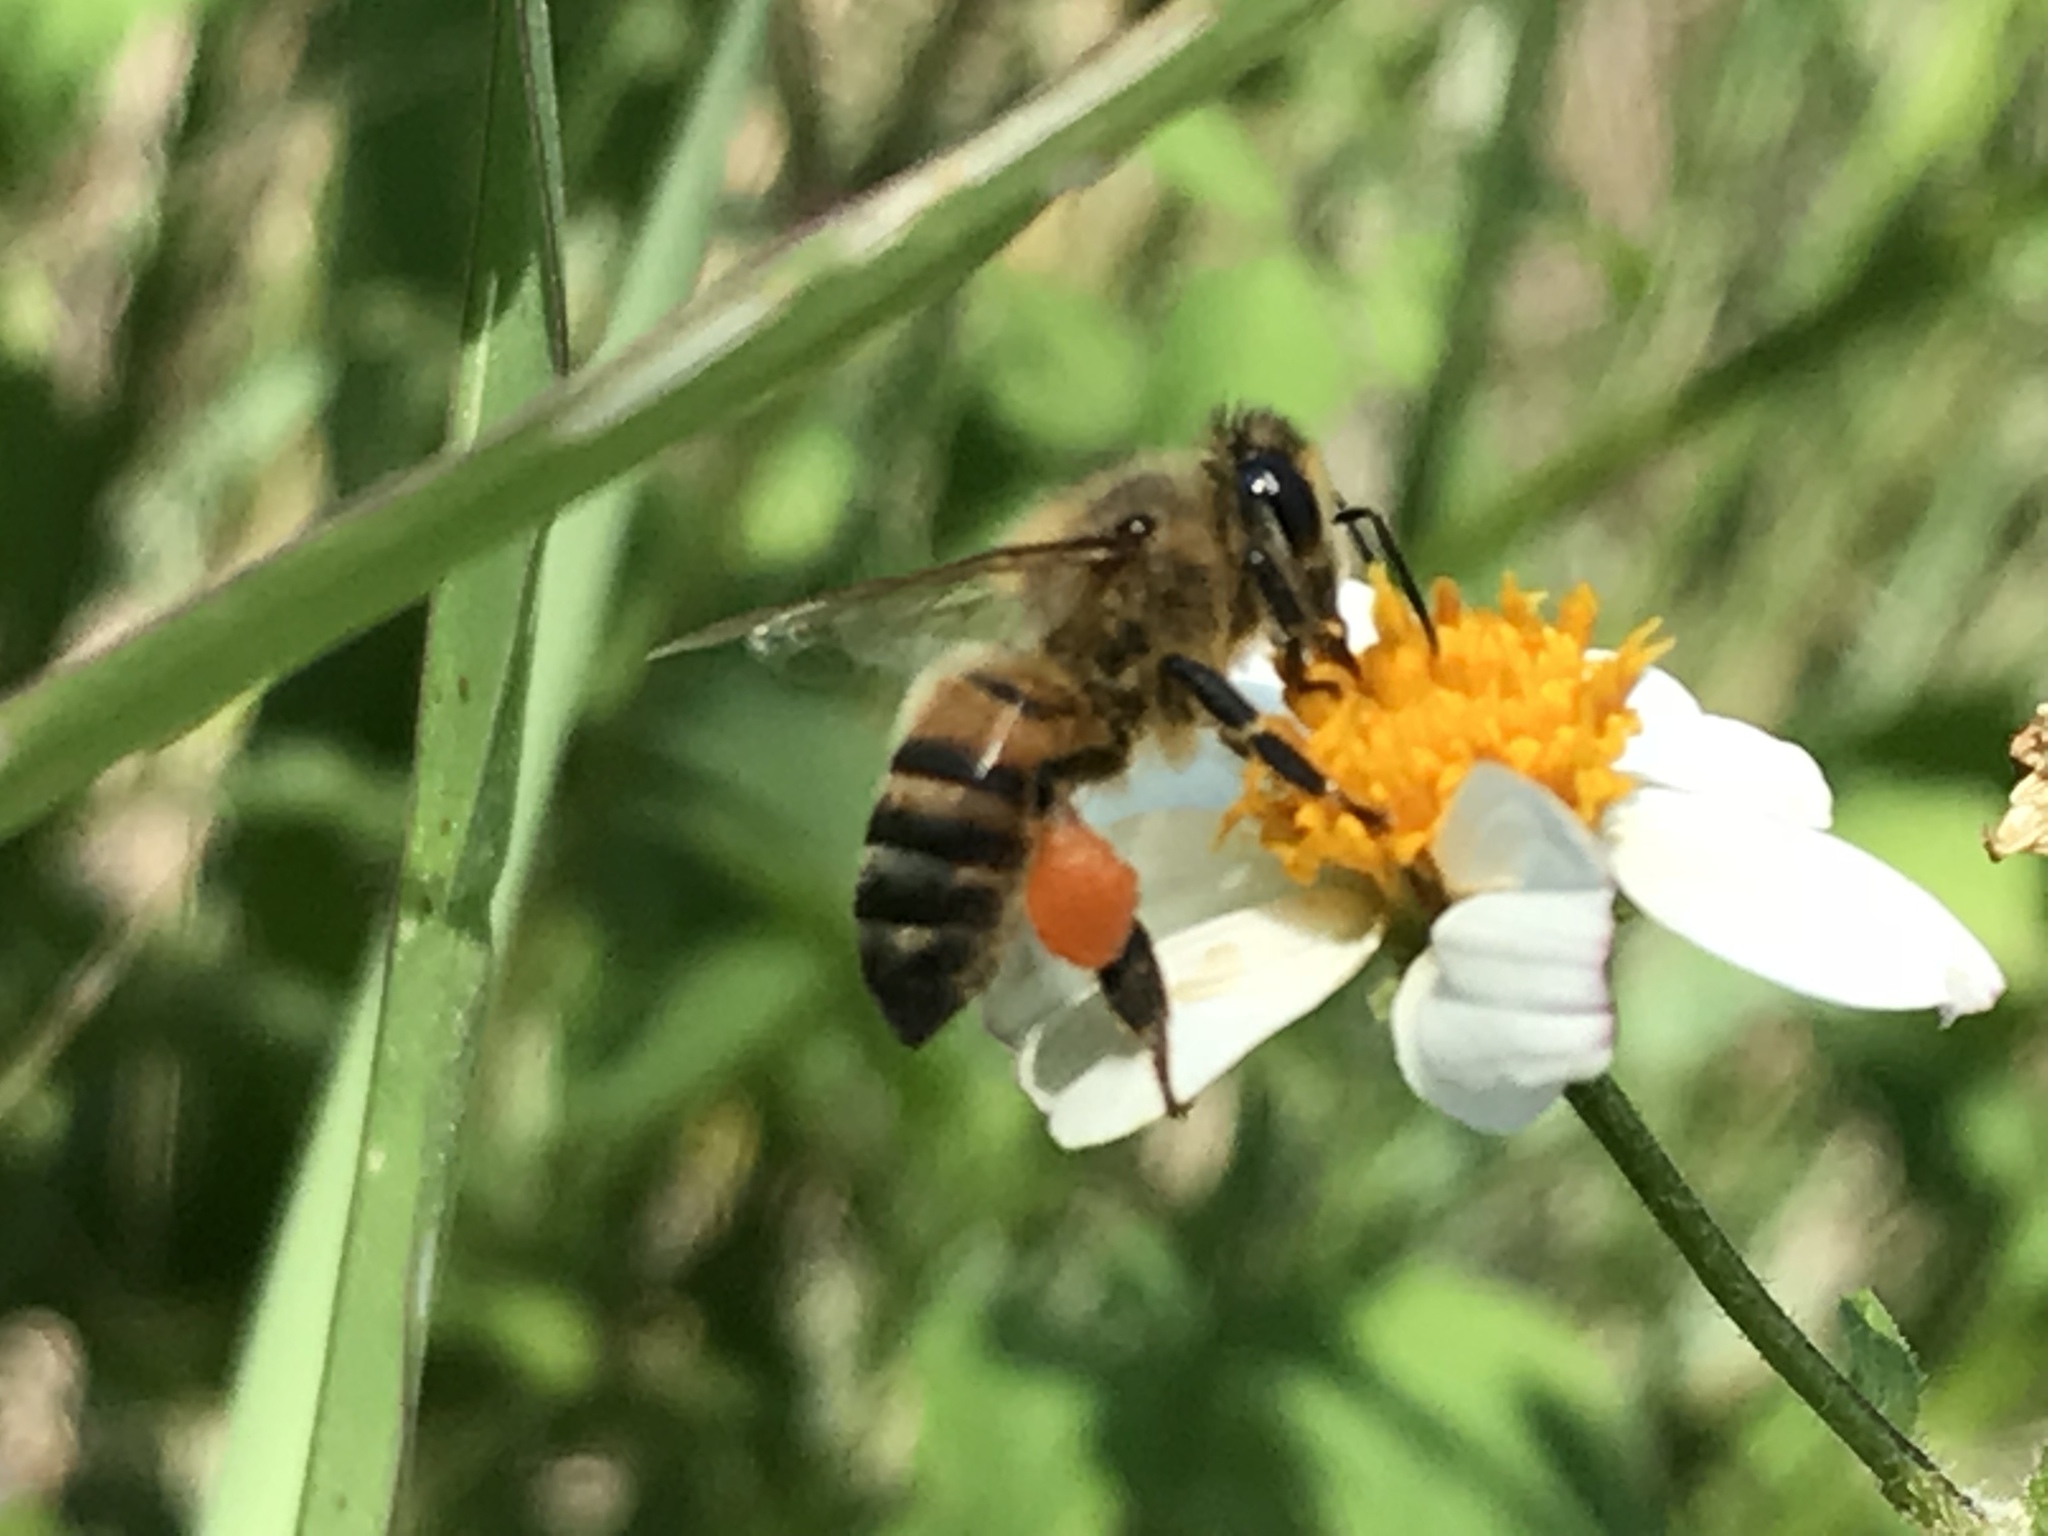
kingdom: Animalia
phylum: Arthropoda
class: Insecta
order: Hymenoptera
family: Apidae
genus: Apis
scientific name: Apis mellifera
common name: Honey bee
